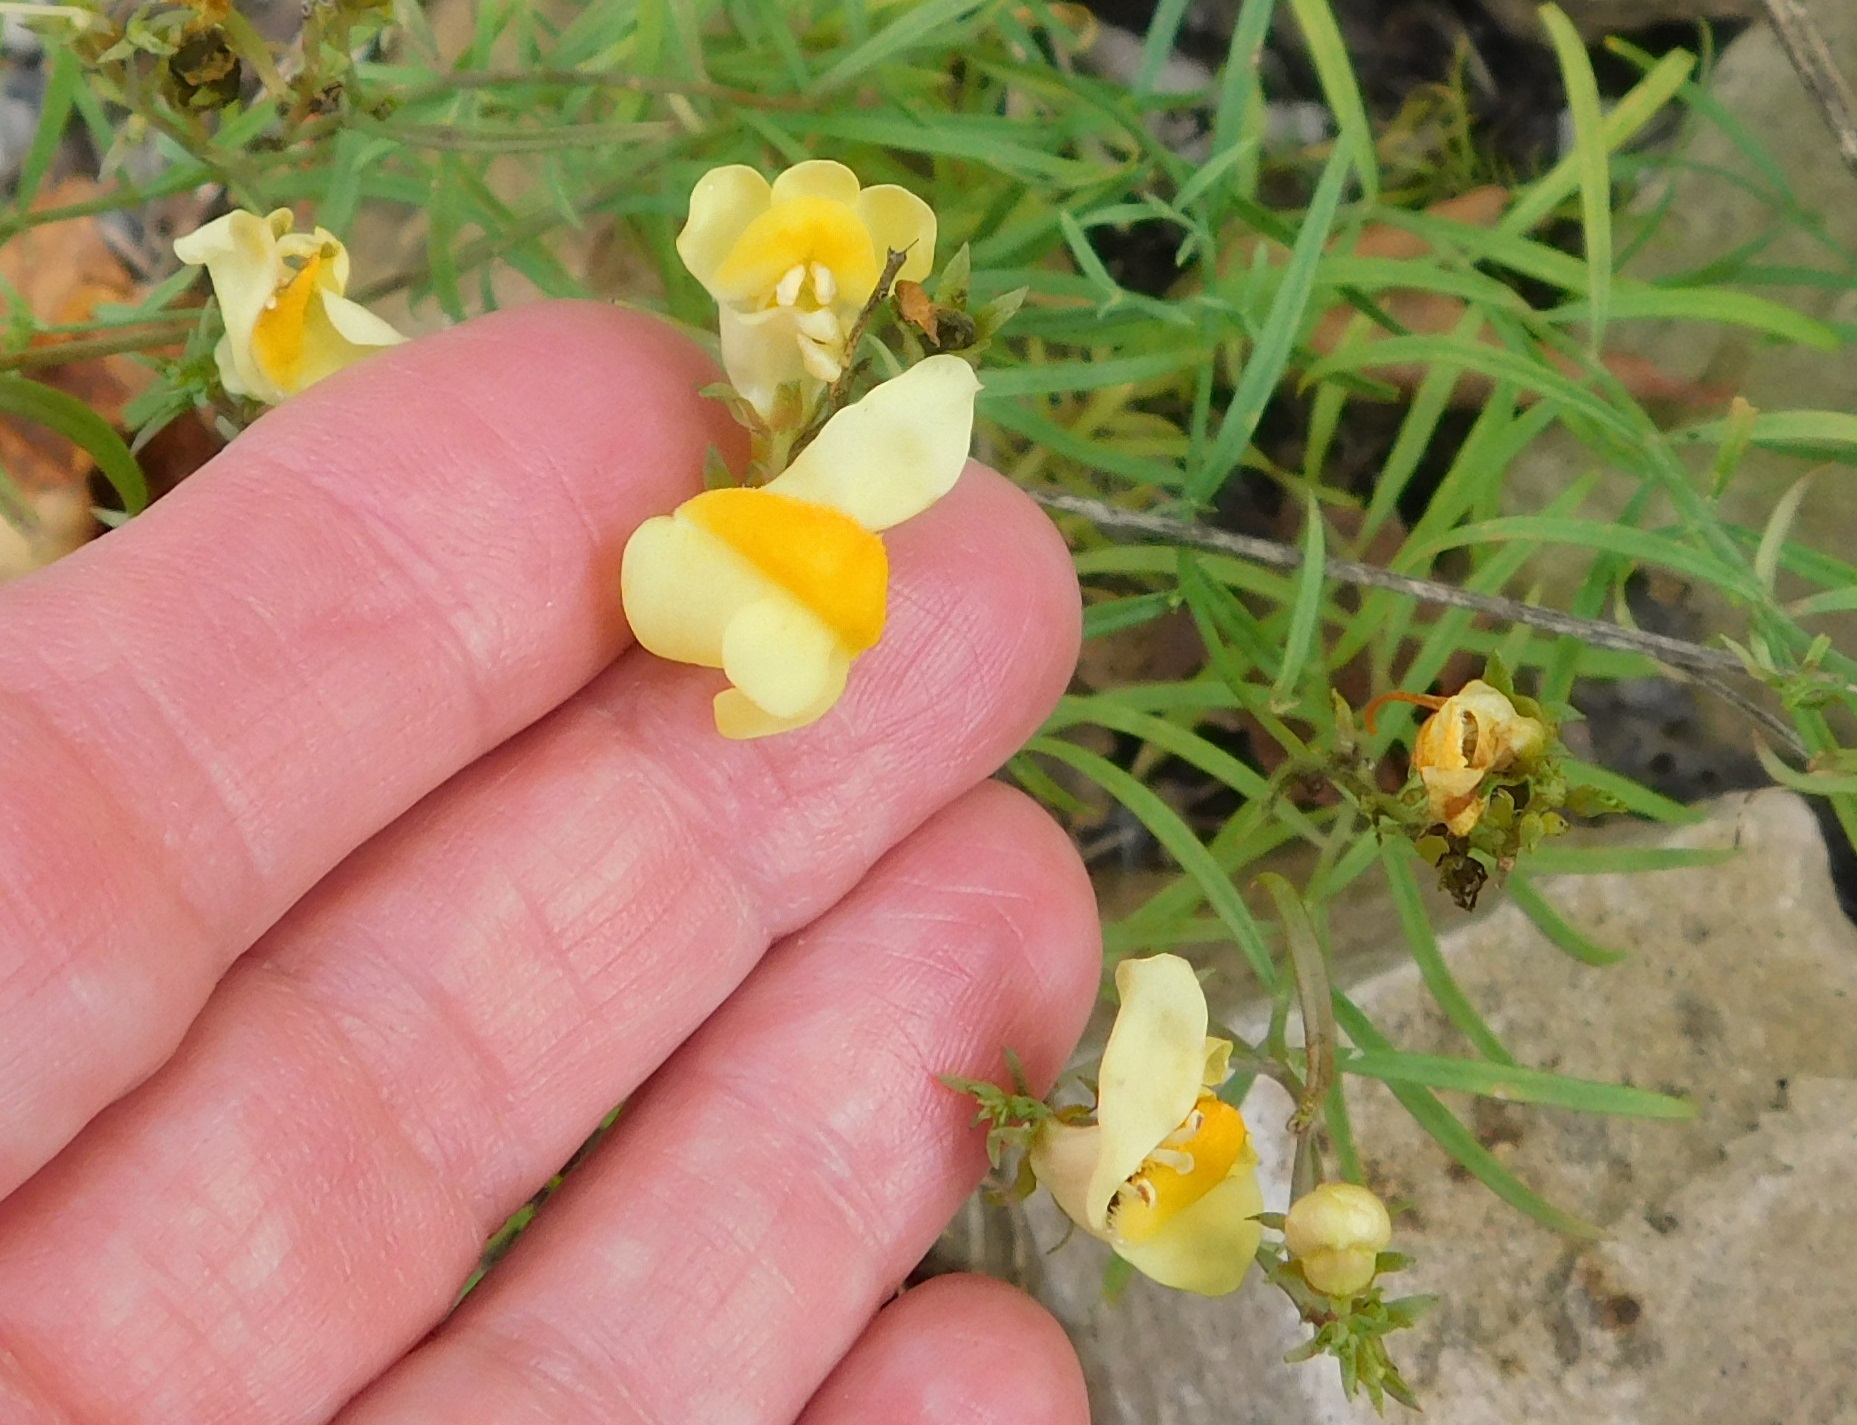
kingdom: Plantae
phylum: Tracheophyta
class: Magnoliopsida
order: Lamiales
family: Plantaginaceae
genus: Linaria
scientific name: Linaria vulgaris
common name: Butter and eggs
